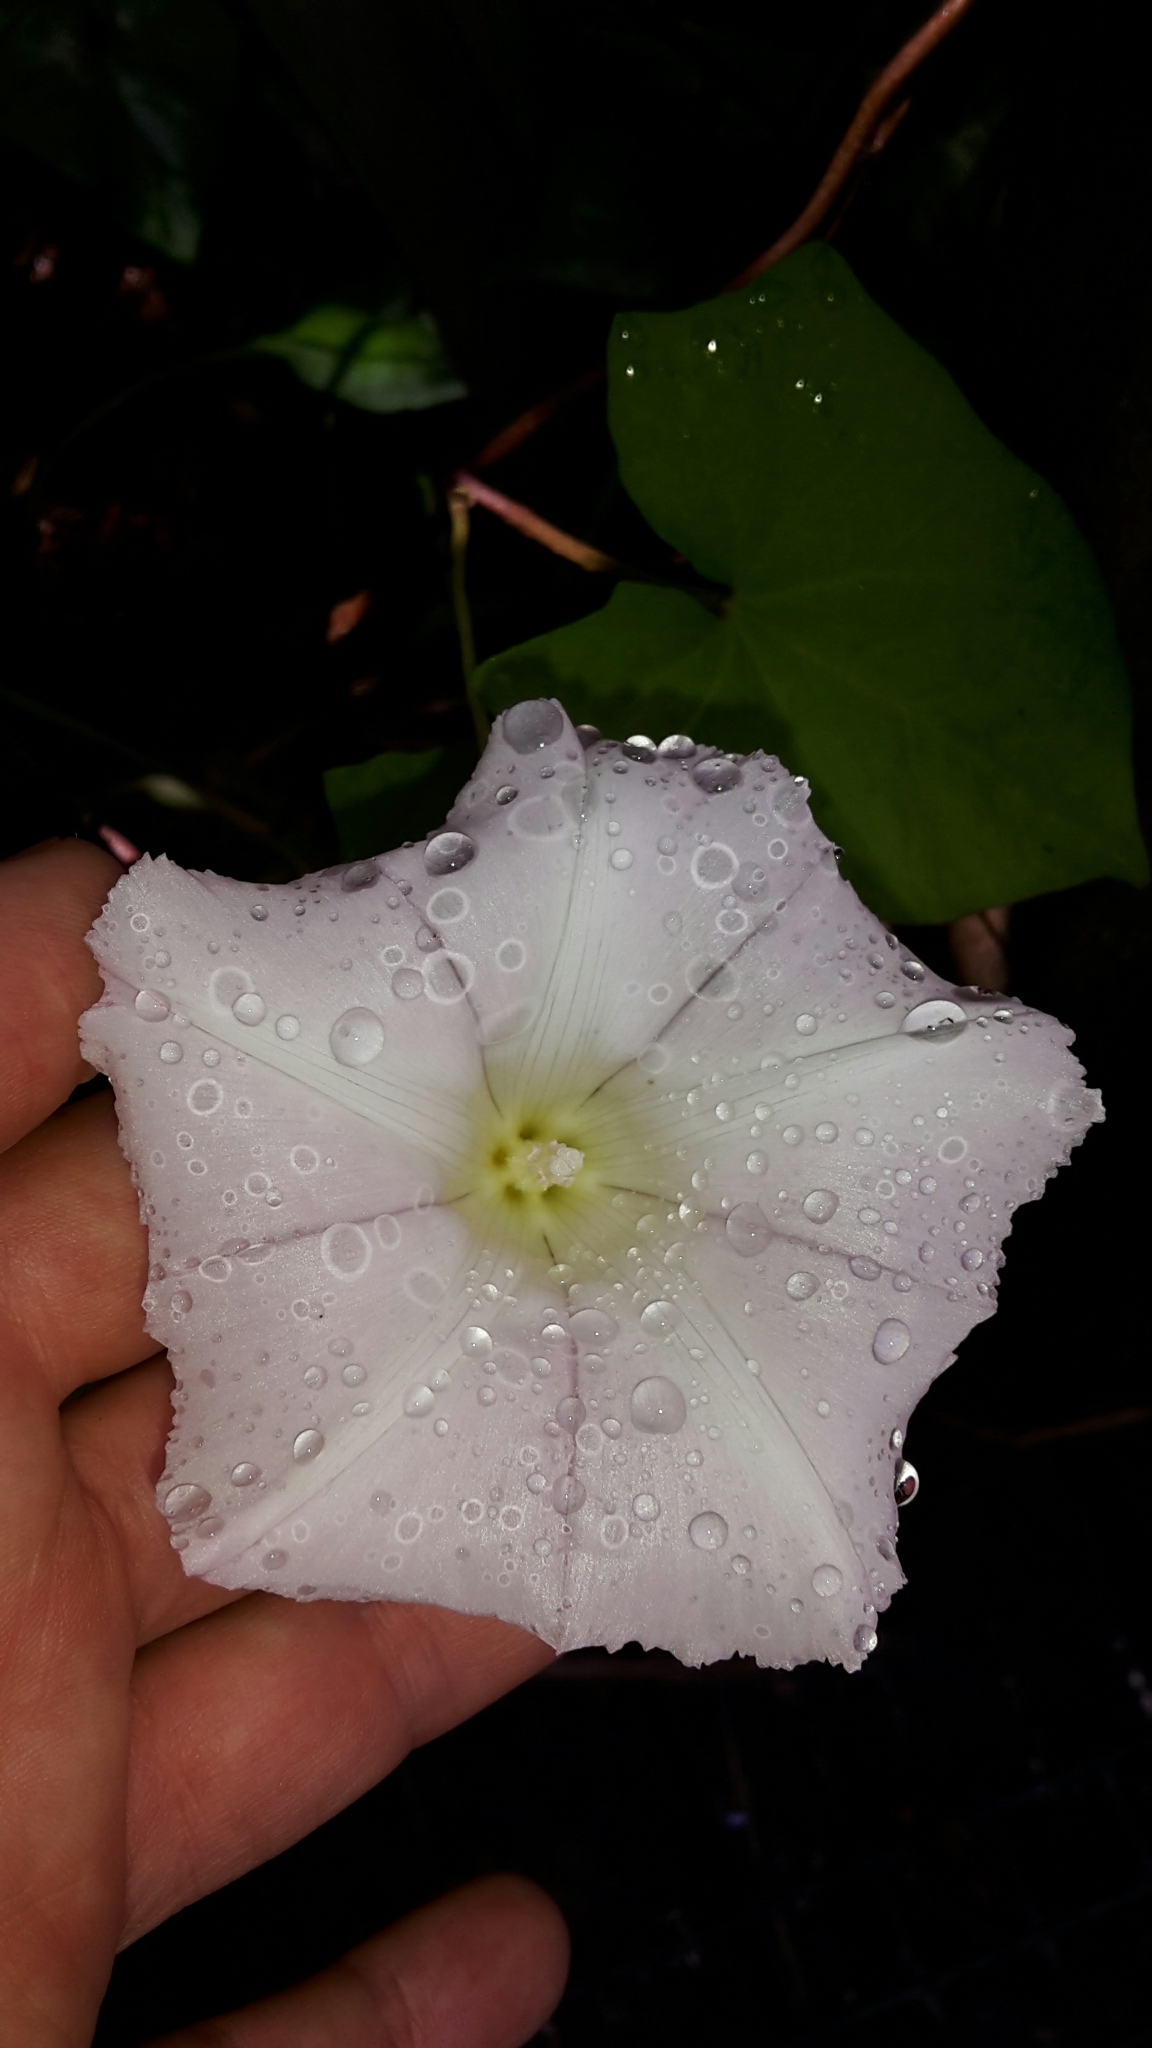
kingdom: Plantae
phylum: Tracheophyta
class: Magnoliopsida
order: Solanales
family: Convolvulaceae
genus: Calystegia
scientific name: Calystegia silvatica
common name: Large bindweed
